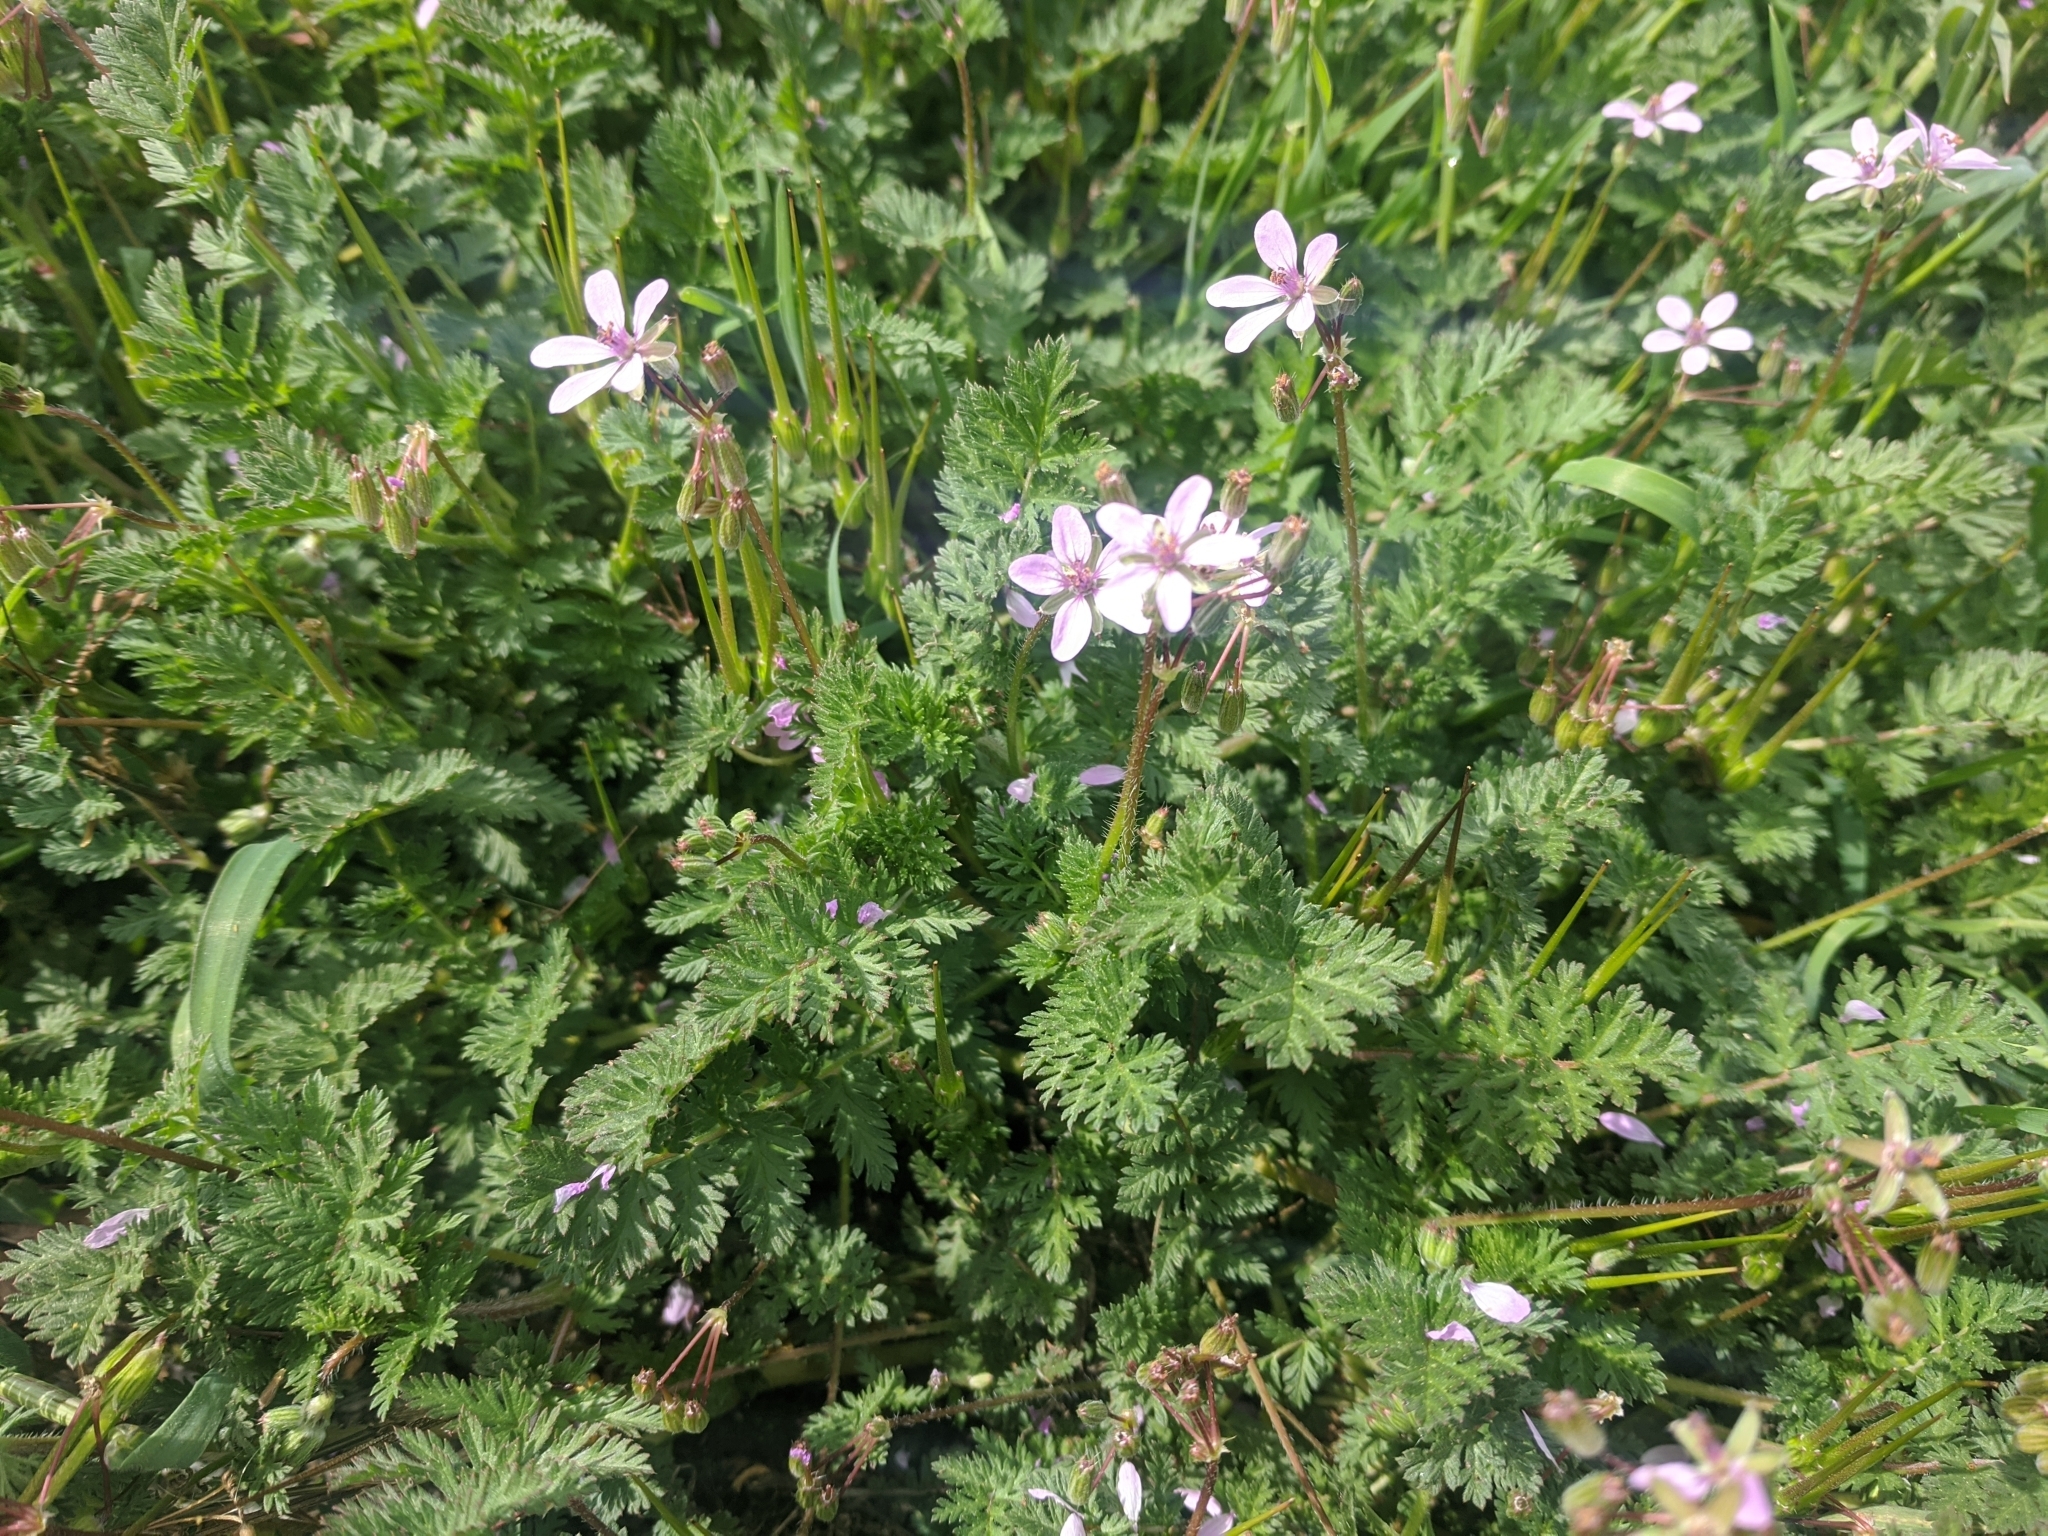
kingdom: Plantae
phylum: Tracheophyta
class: Magnoliopsida
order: Geraniales
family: Geraniaceae
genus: Erodium
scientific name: Erodium cicutarium
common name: Common stork's-bill
